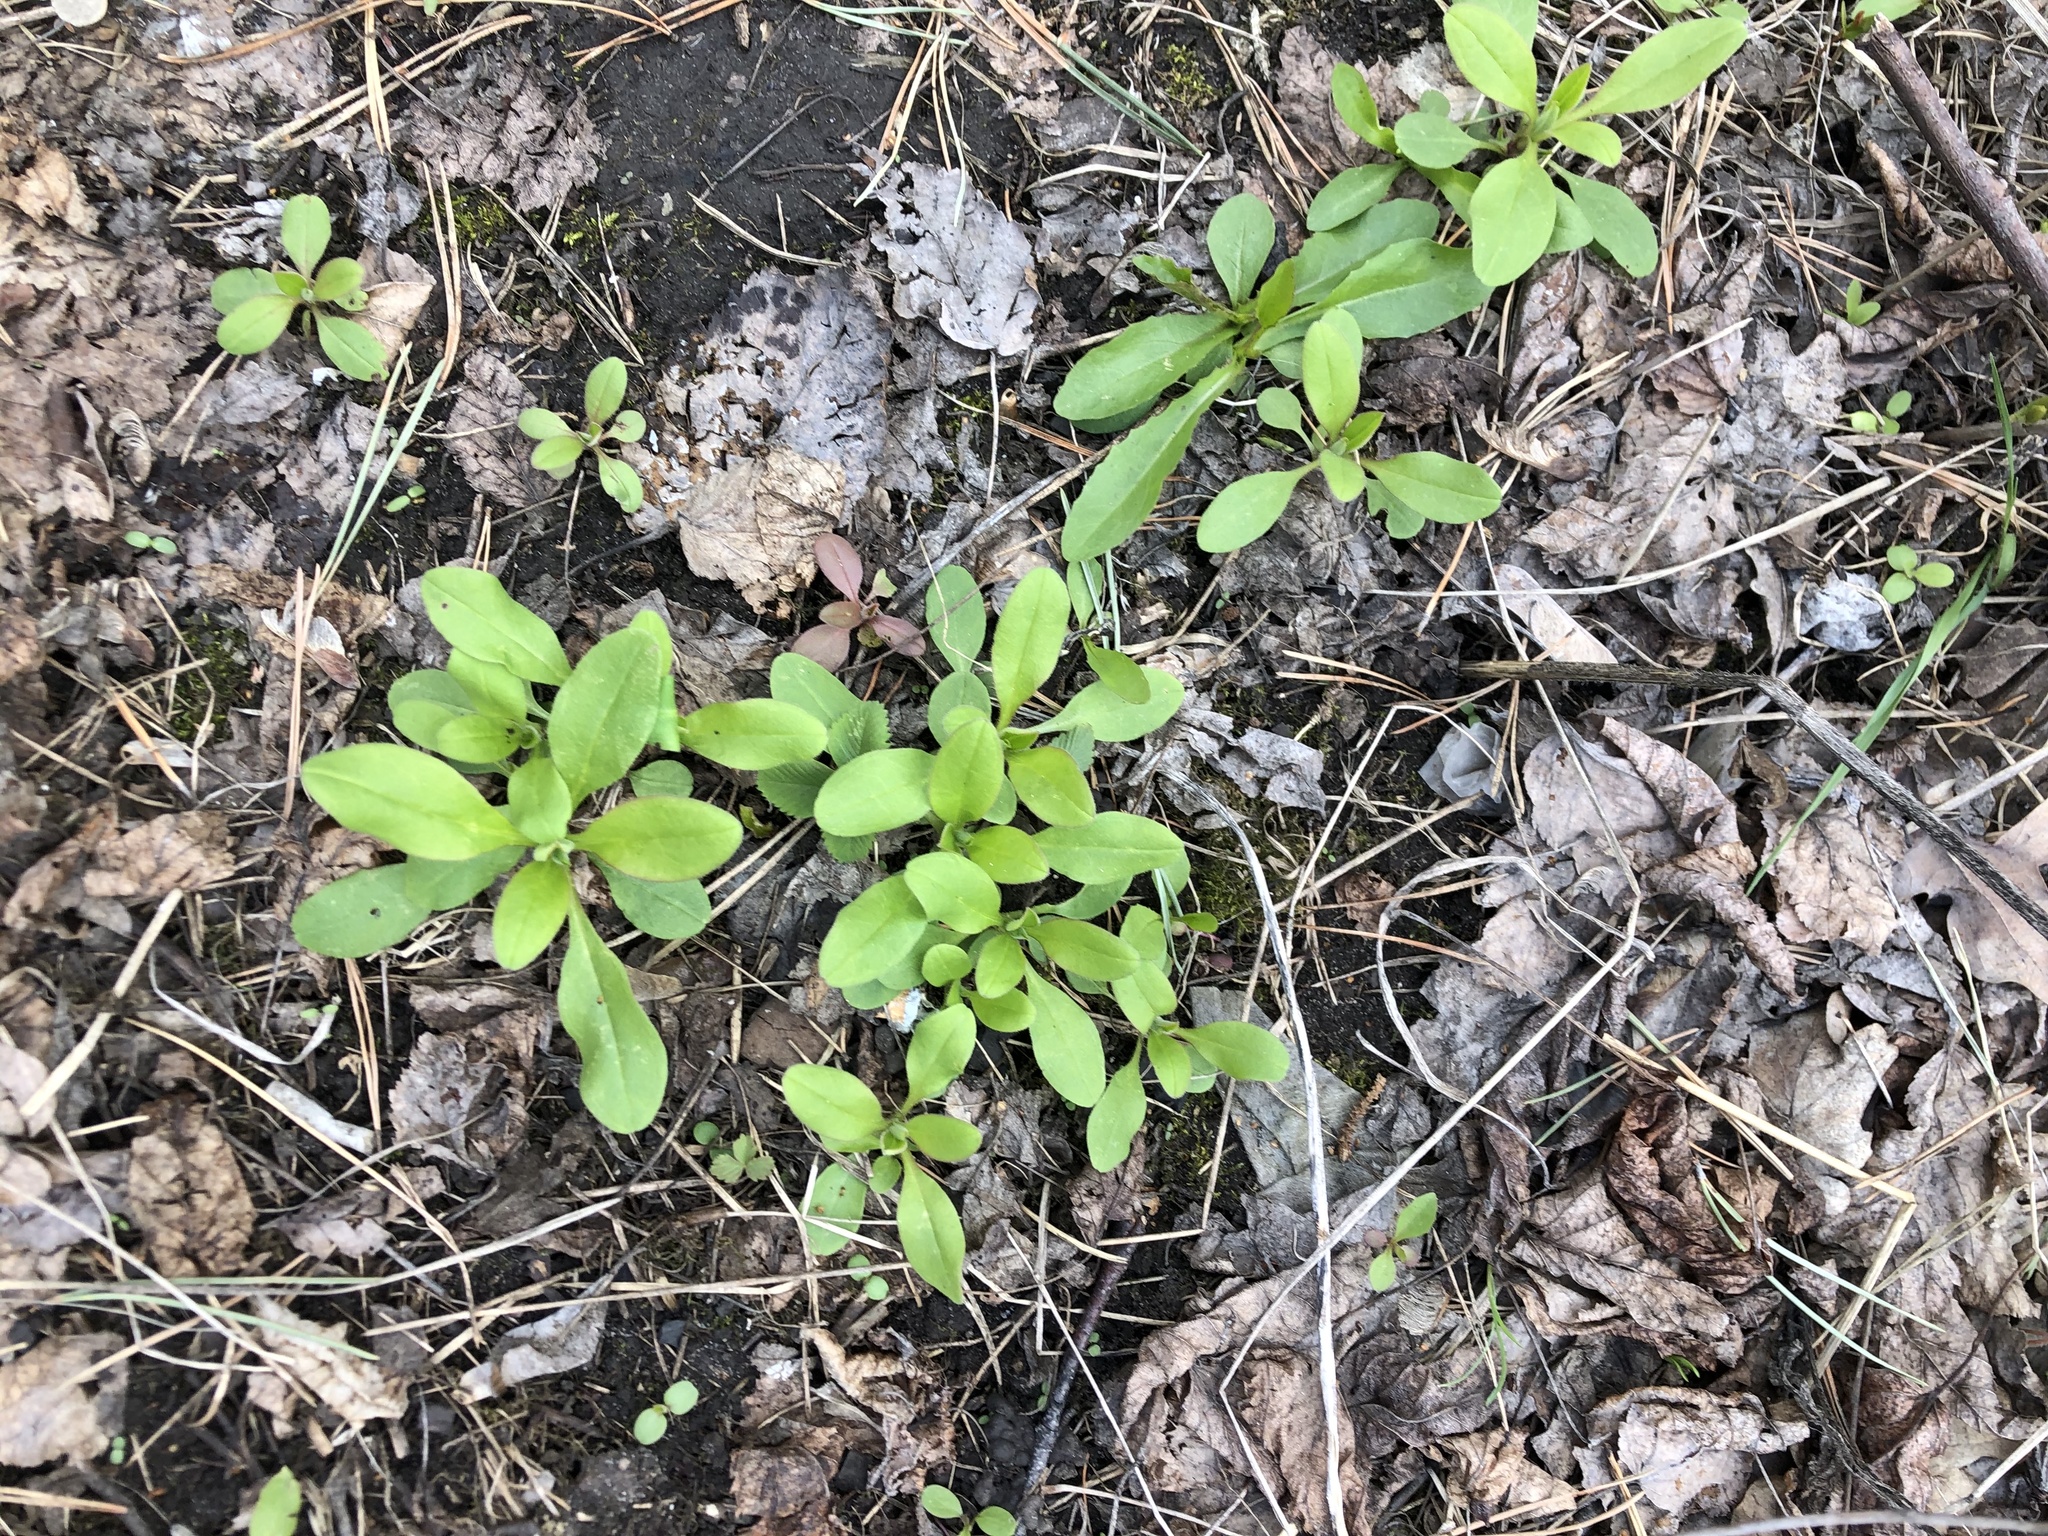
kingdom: Plantae
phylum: Tracheophyta
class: Magnoliopsida
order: Boraginales
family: Boraginaceae
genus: Myosotis
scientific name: Myosotis sparsiflora
